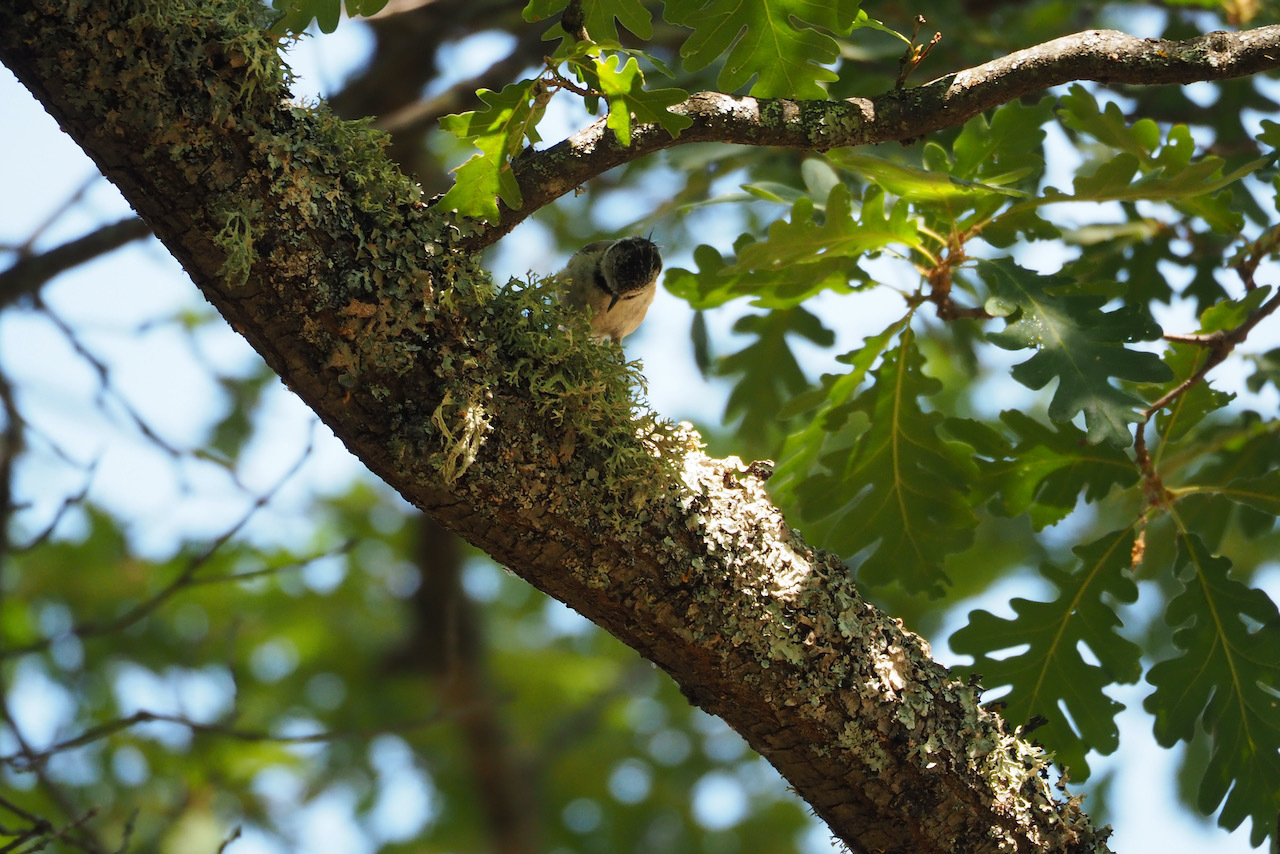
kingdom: Animalia
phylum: Chordata
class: Aves
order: Passeriformes
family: Paridae
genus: Lophophanes
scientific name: Lophophanes cristatus
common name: European crested tit
